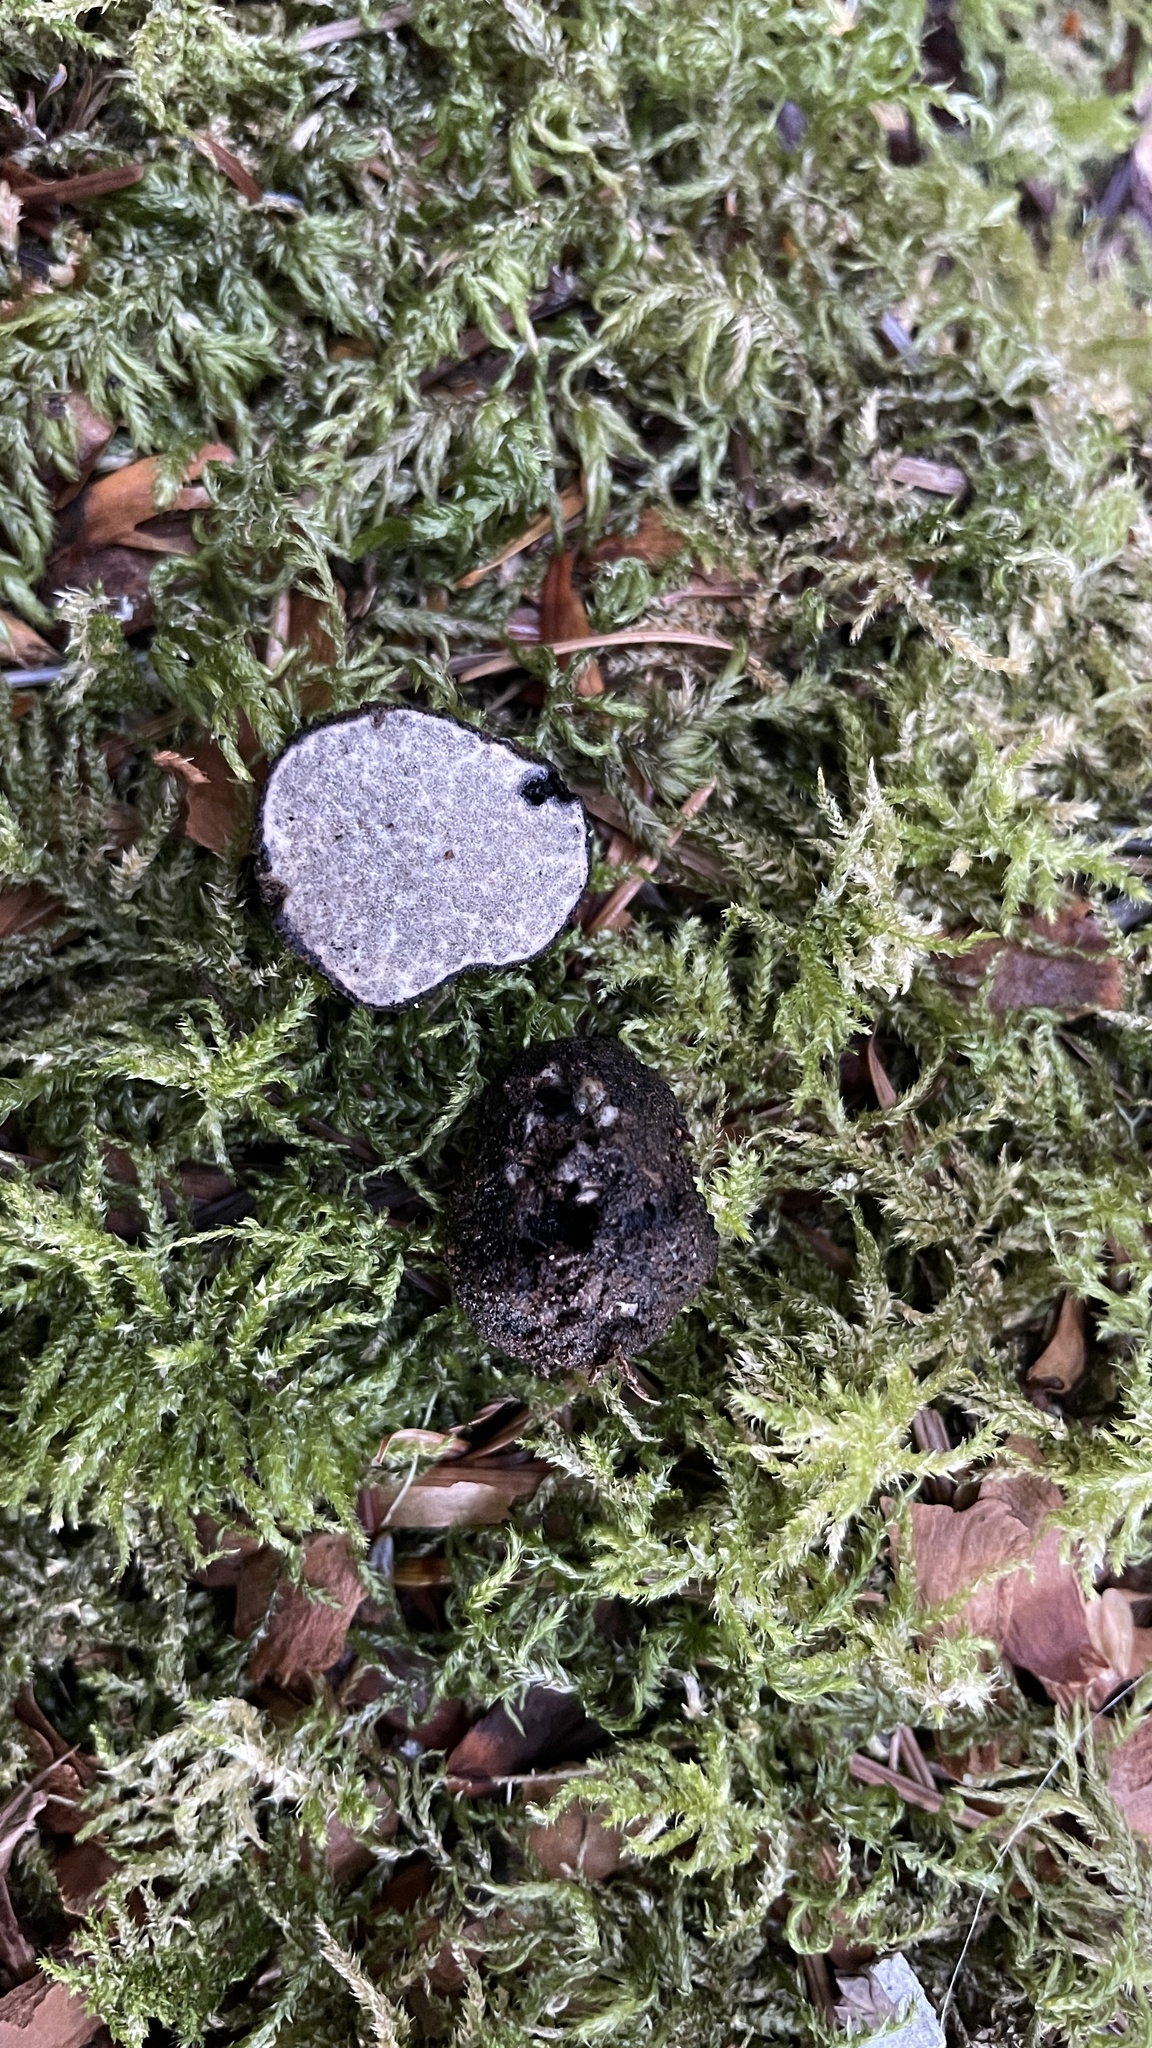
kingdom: Fungi
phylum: Ascomycota
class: Pezizomycetes
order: Pezizales
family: Morchellaceae
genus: Leucangium
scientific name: Leucangium carthusianum
